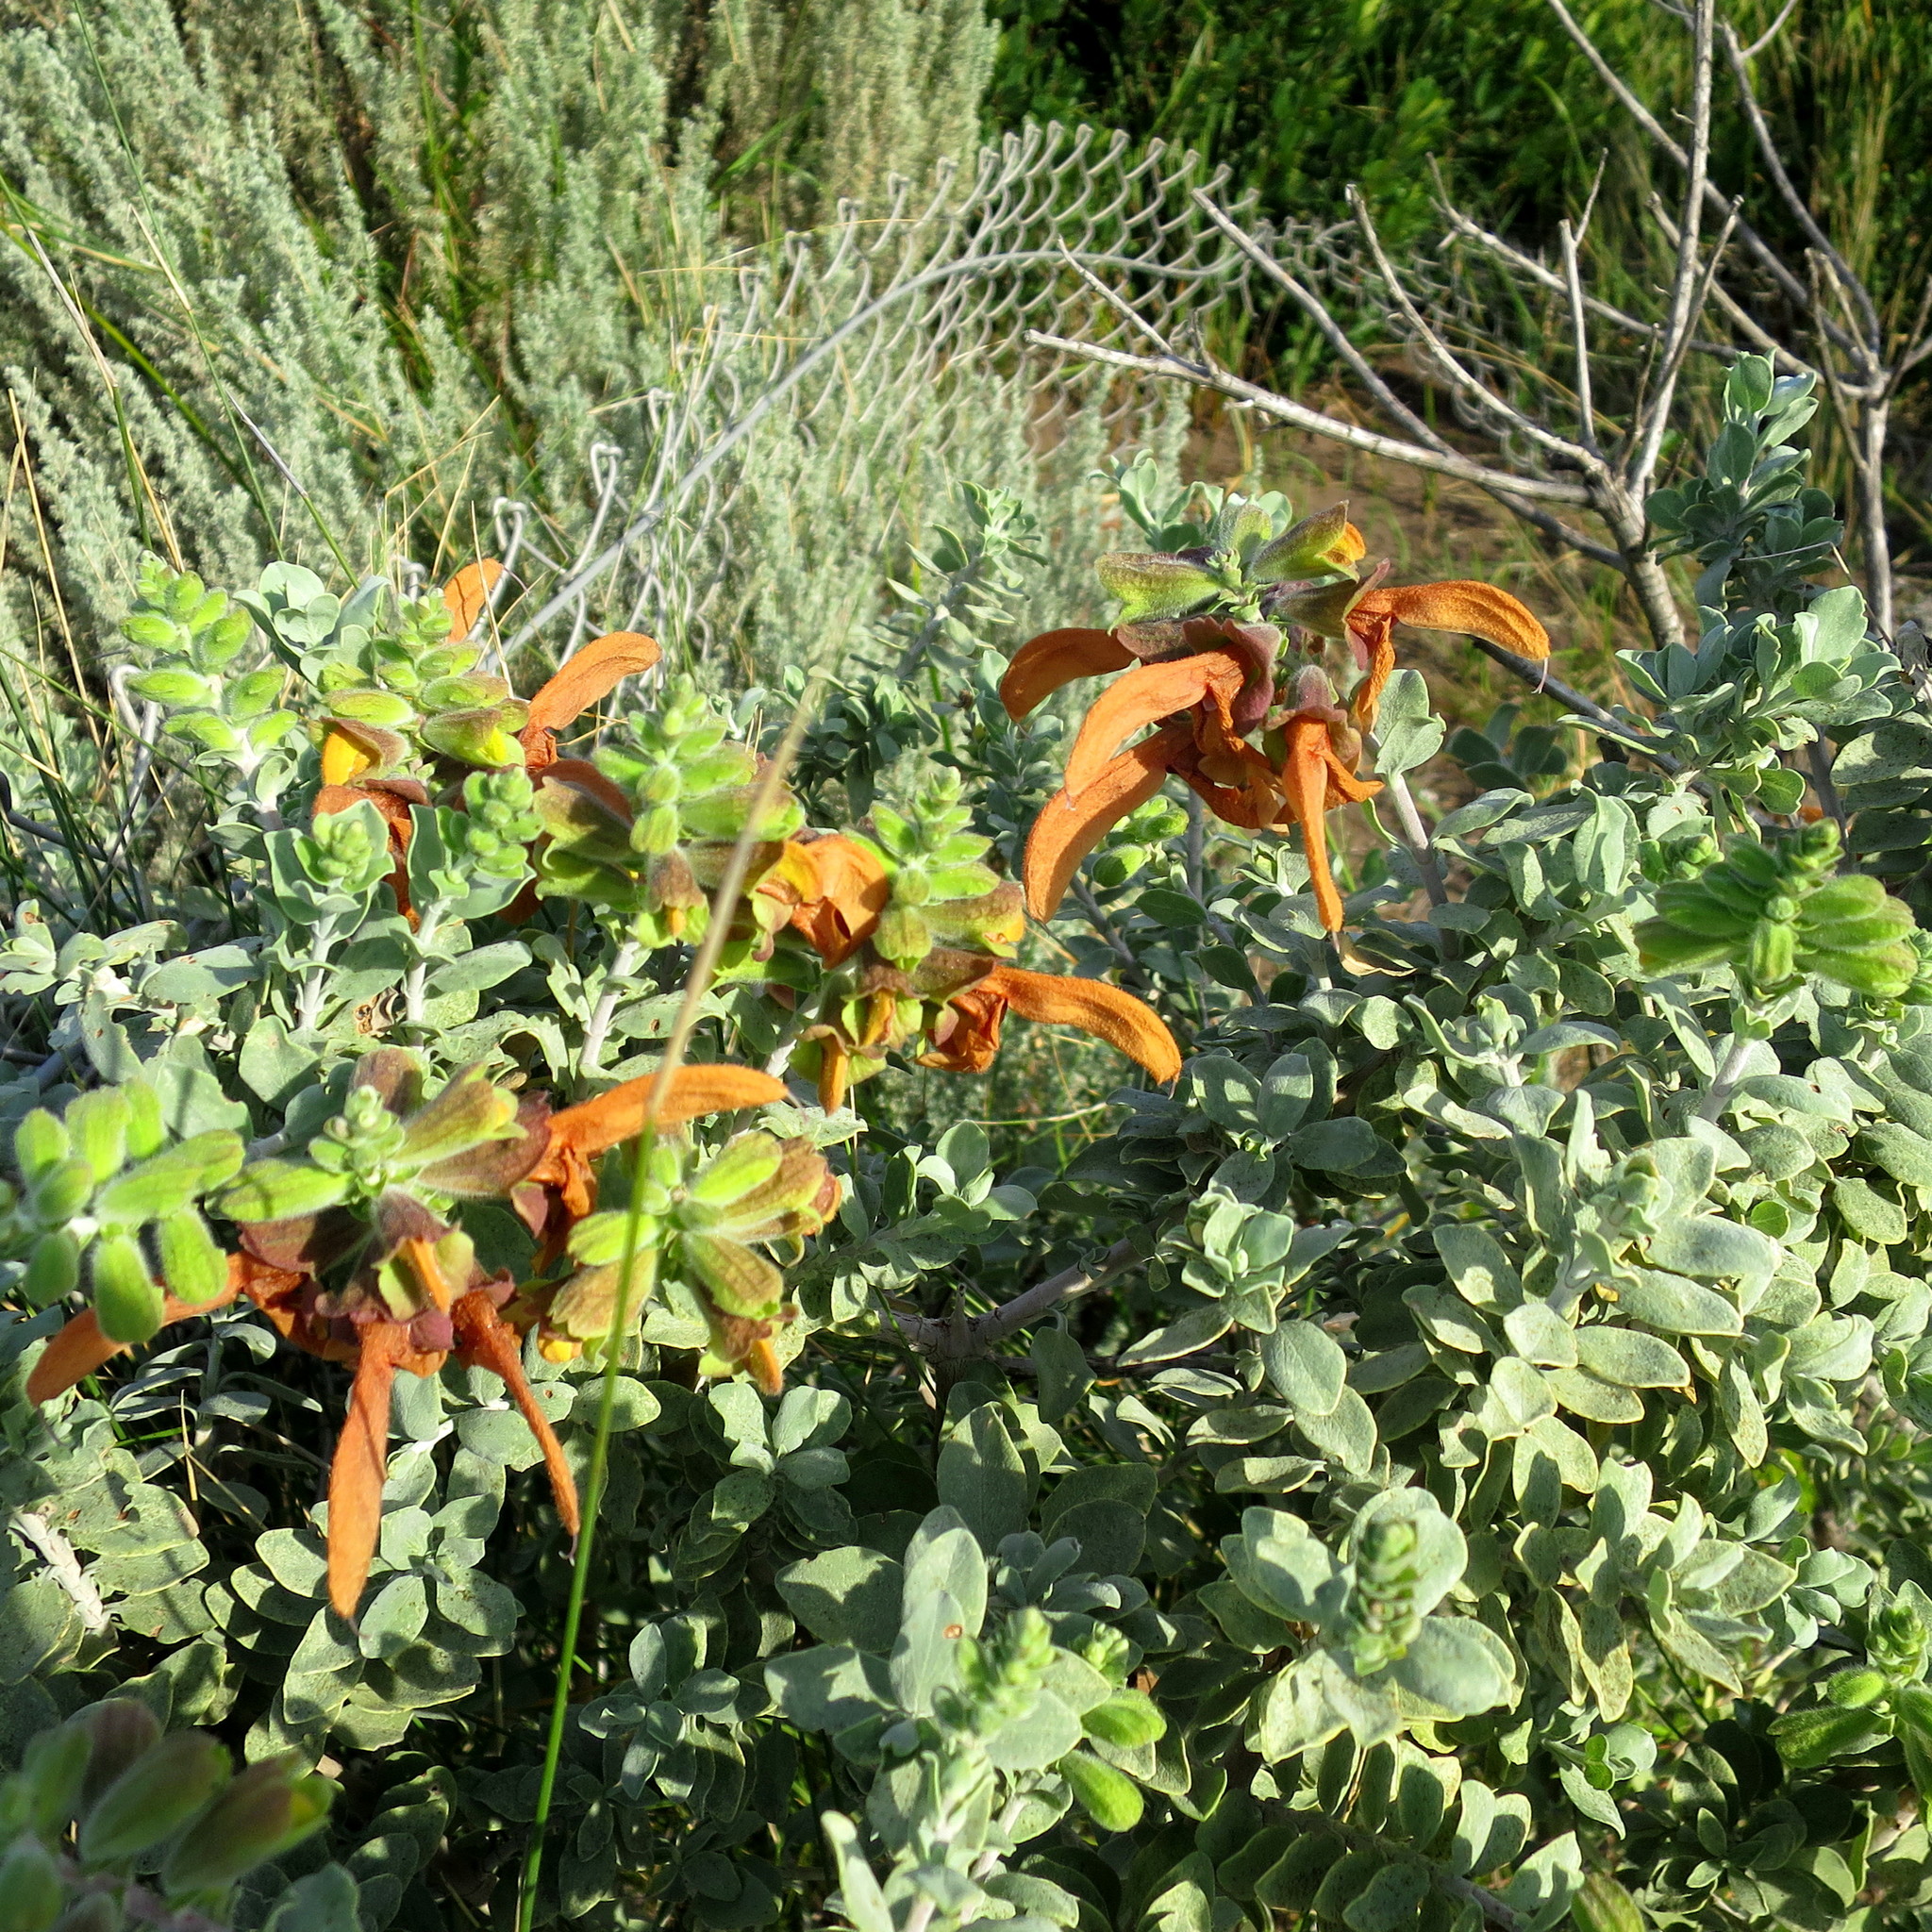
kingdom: Plantae
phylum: Tracheophyta
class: Magnoliopsida
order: Lamiales
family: Lamiaceae
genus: Salvia
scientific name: Salvia aurea
